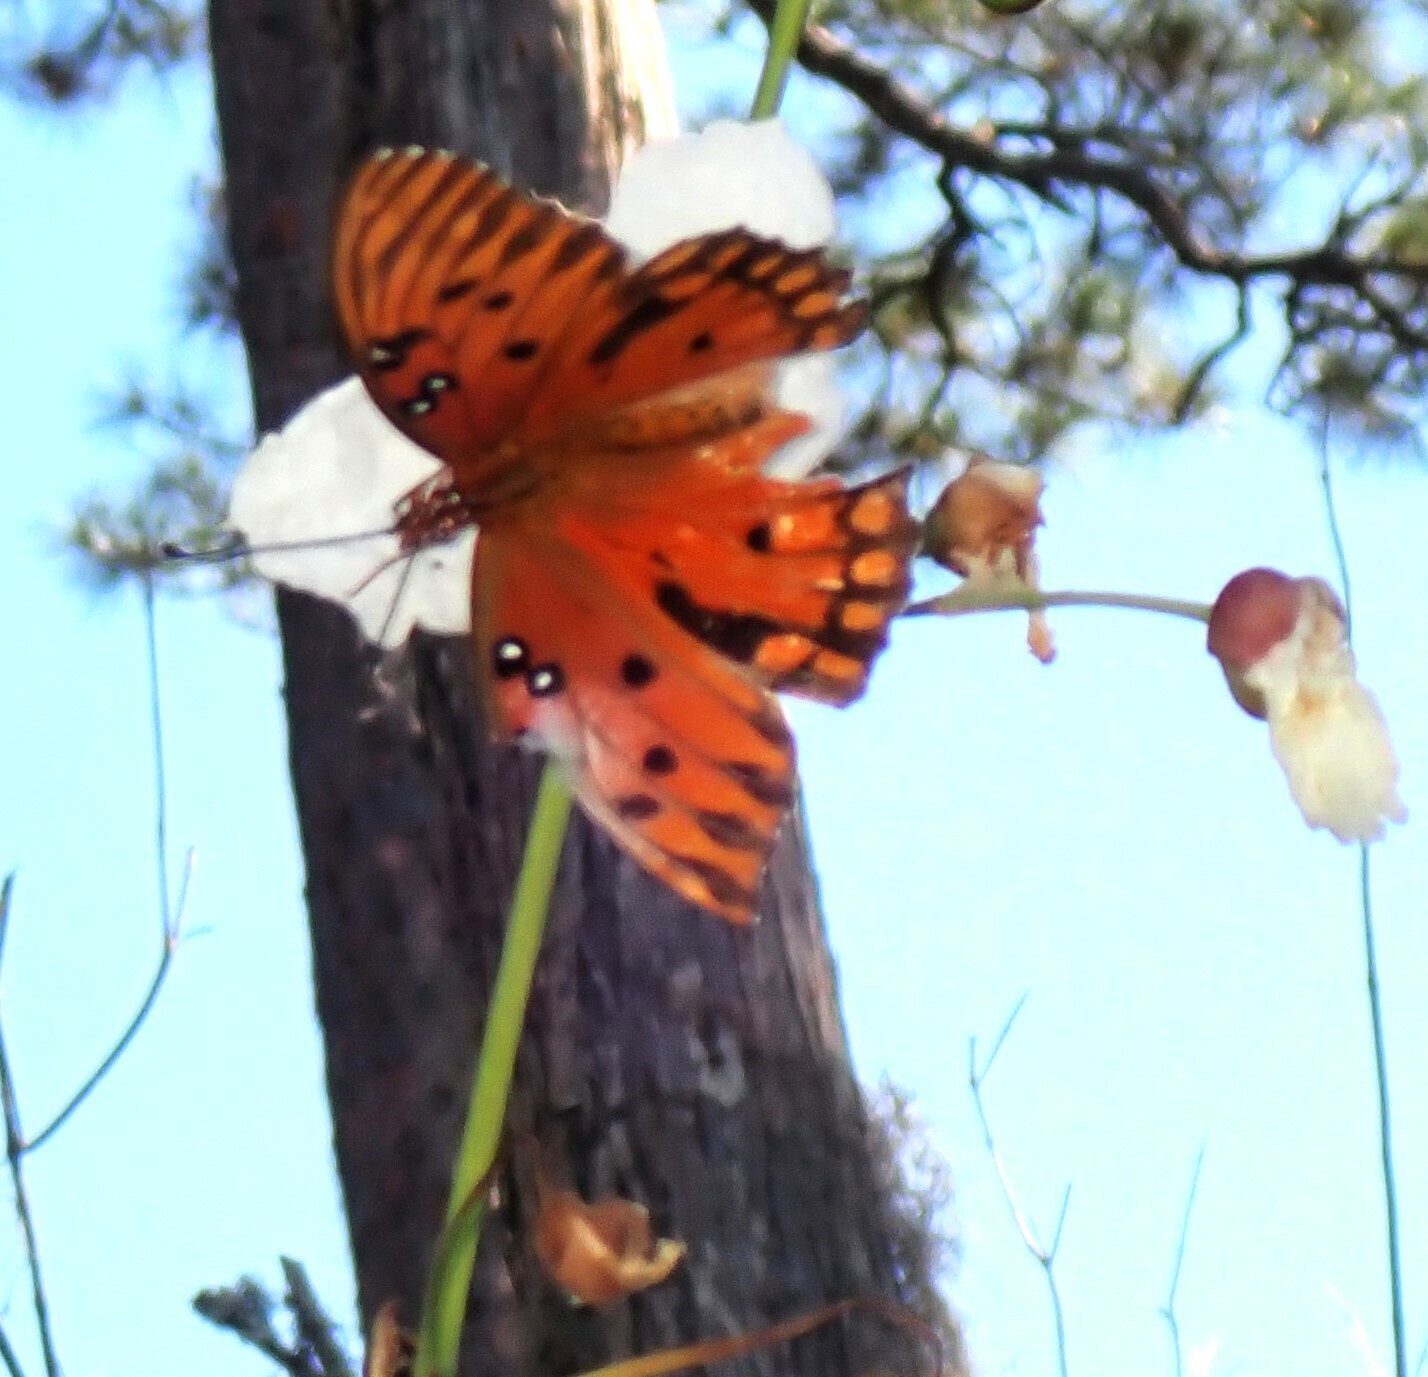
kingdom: Animalia
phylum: Arthropoda
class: Insecta
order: Lepidoptera
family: Nymphalidae
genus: Dione
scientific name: Dione vanillae
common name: Gulf fritillary
